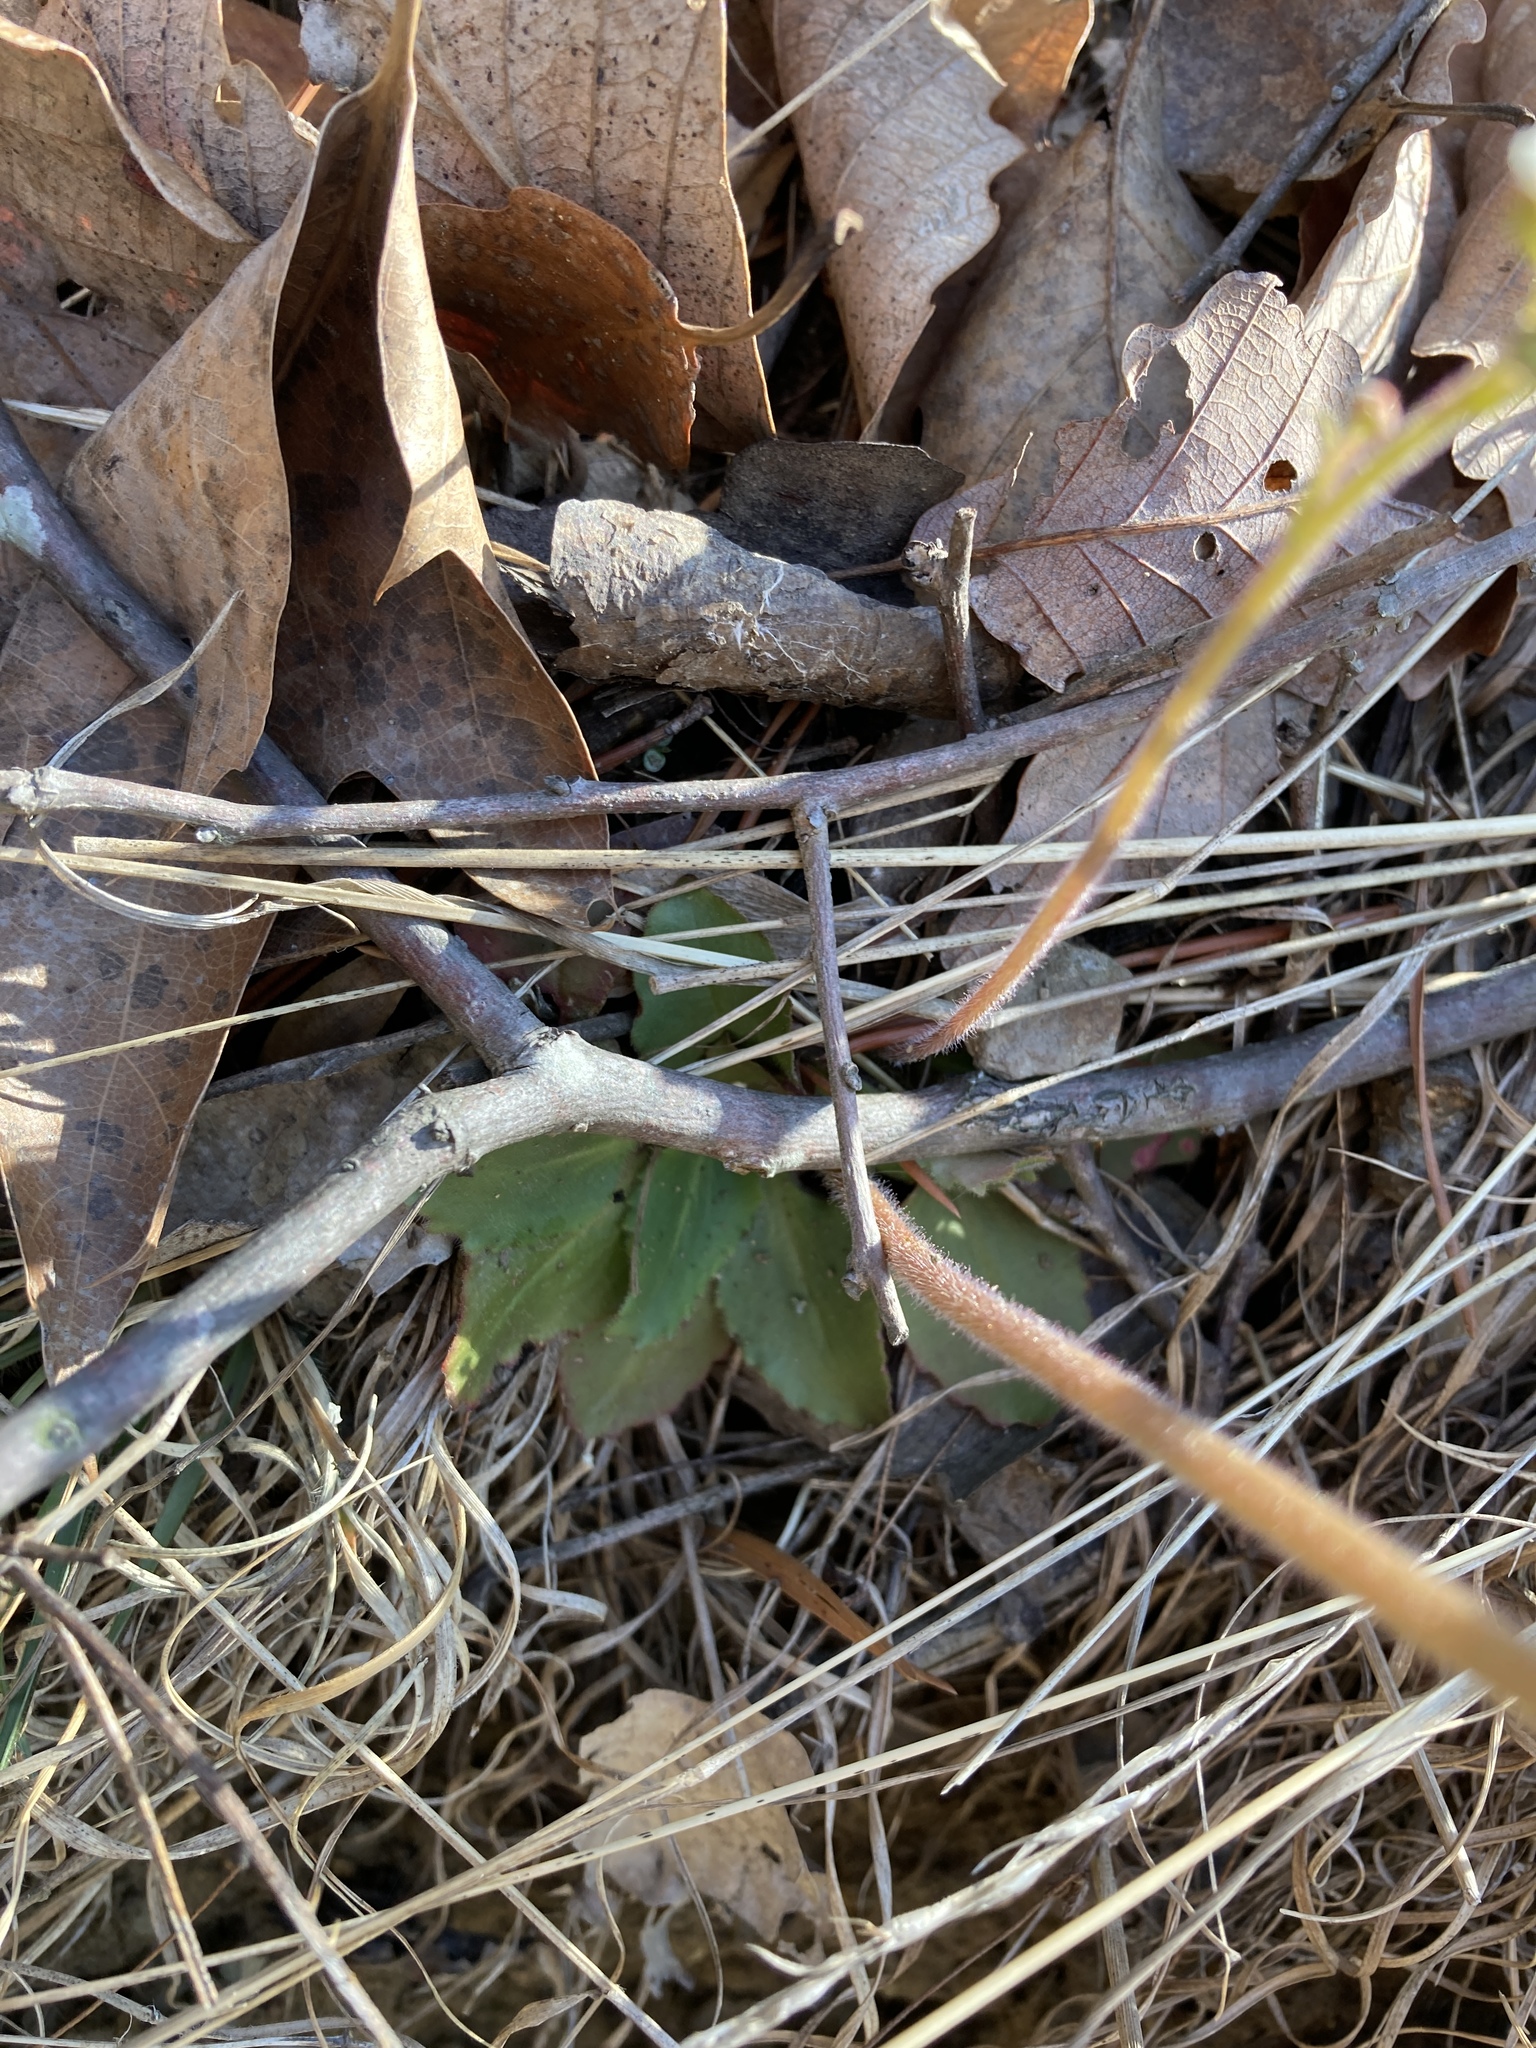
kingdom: Plantae
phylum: Tracheophyta
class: Magnoliopsida
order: Saxifragales
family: Saxifragaceae
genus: Micranthes
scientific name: Micranthes virginiensis
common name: Early saxifrage
